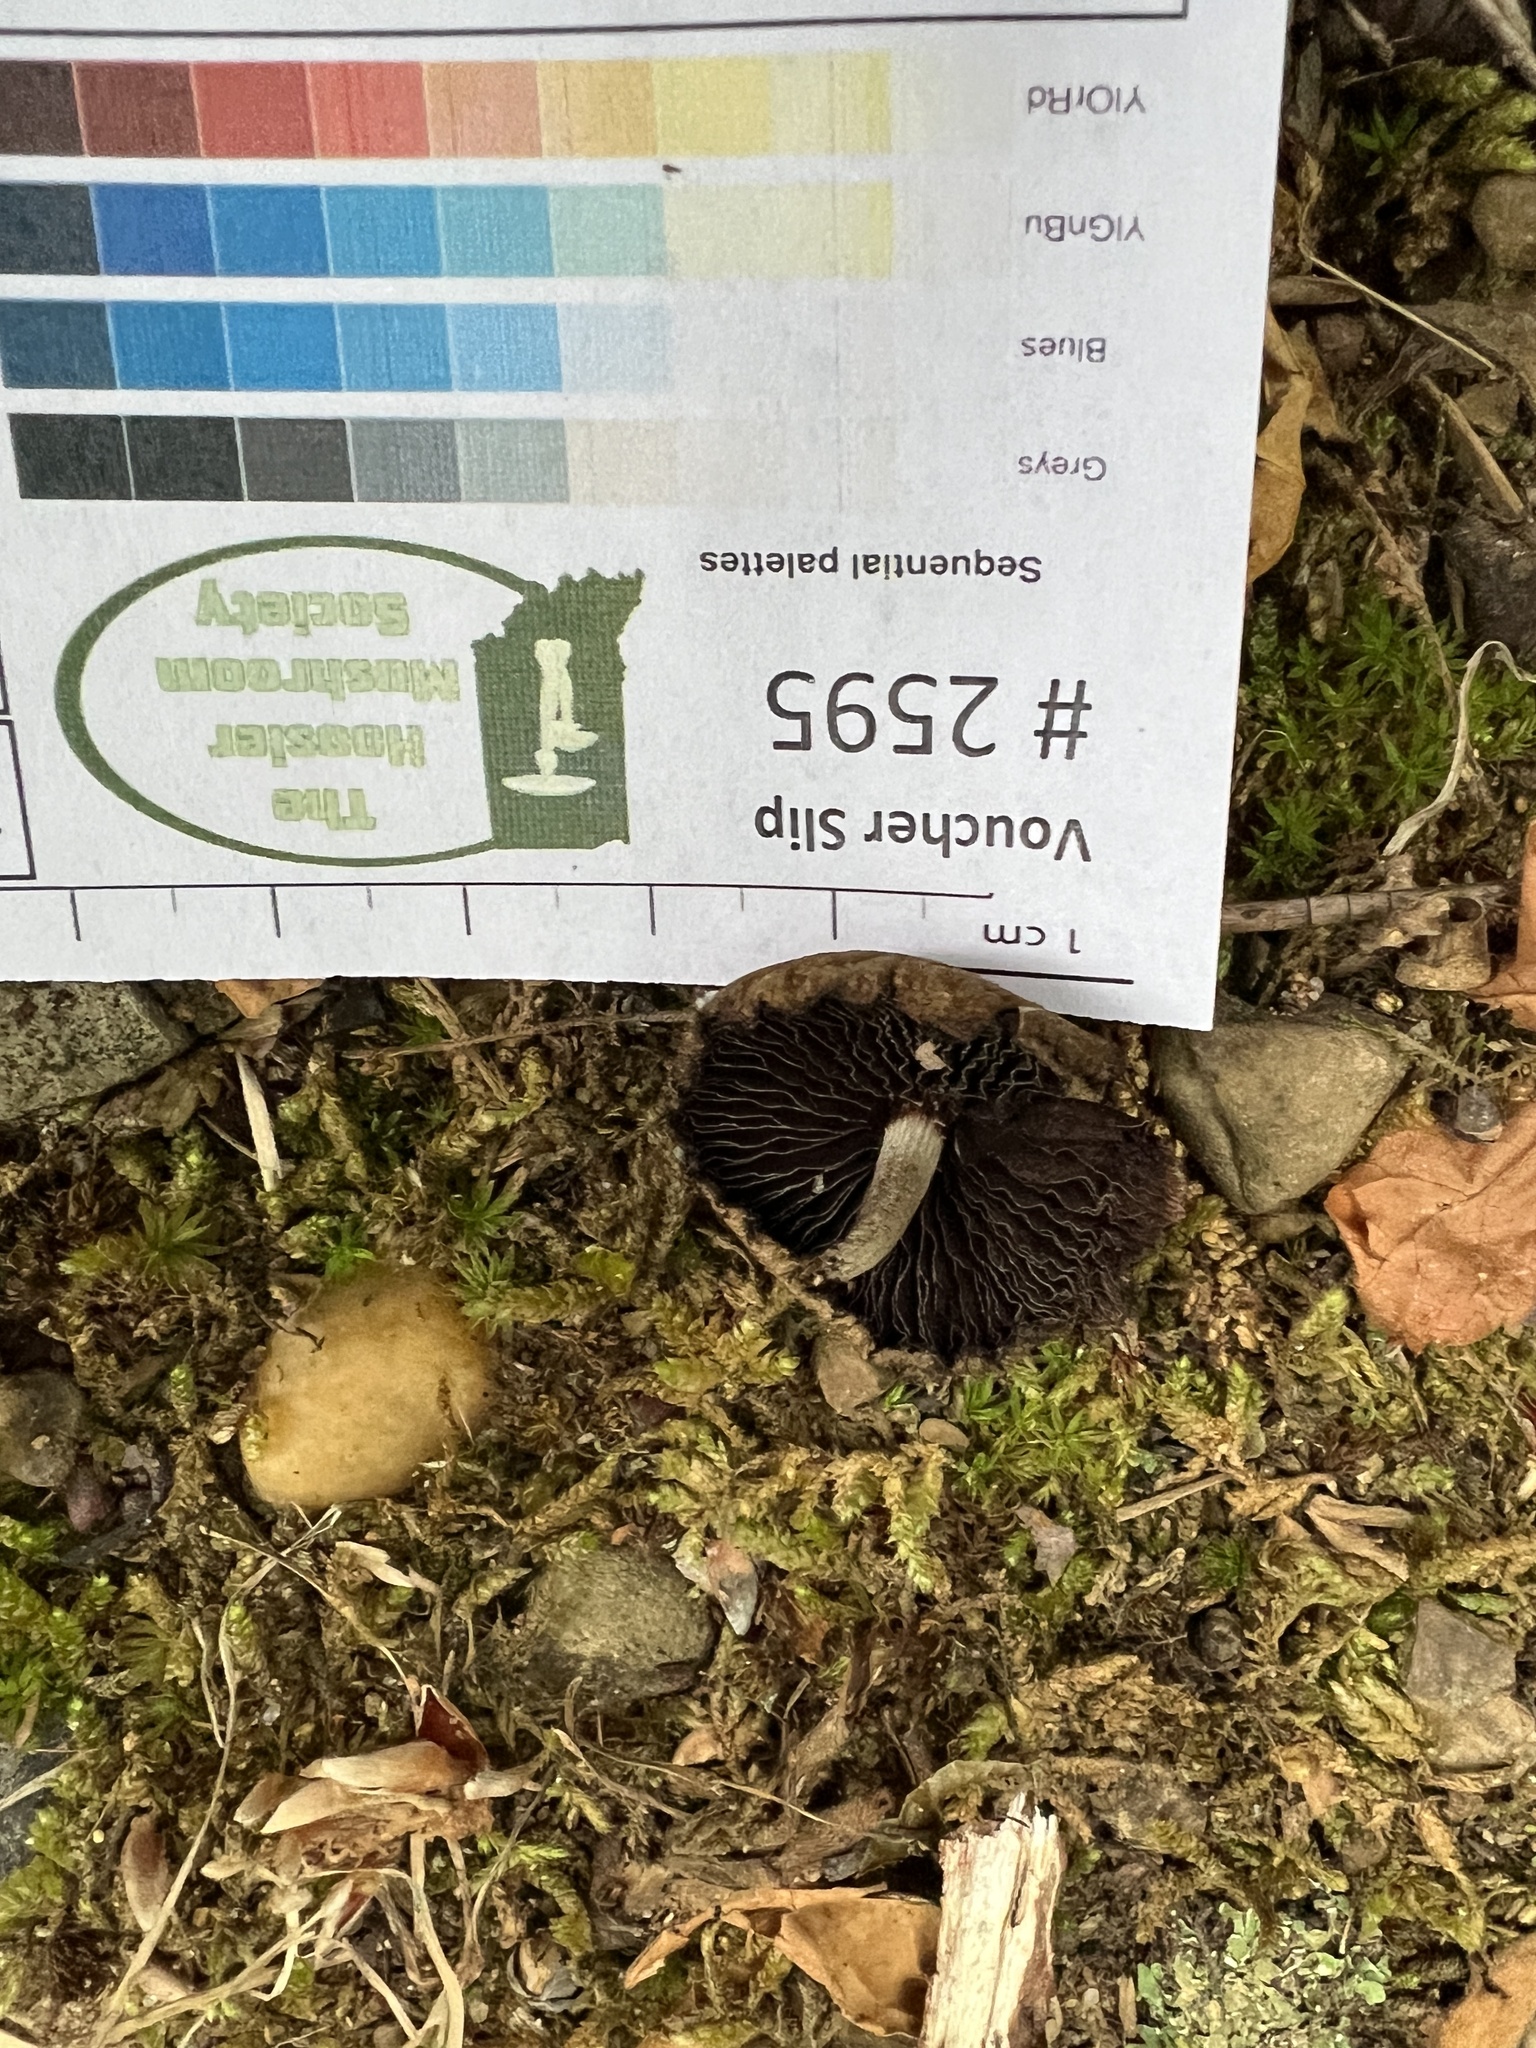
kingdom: Fungi
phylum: Basidiomycota
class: Agaricomycetes
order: Agaricales
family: Psathyrellaceae
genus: Lacrymaria
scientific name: Lacrymaria lacrymabunda
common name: Weeping widow
